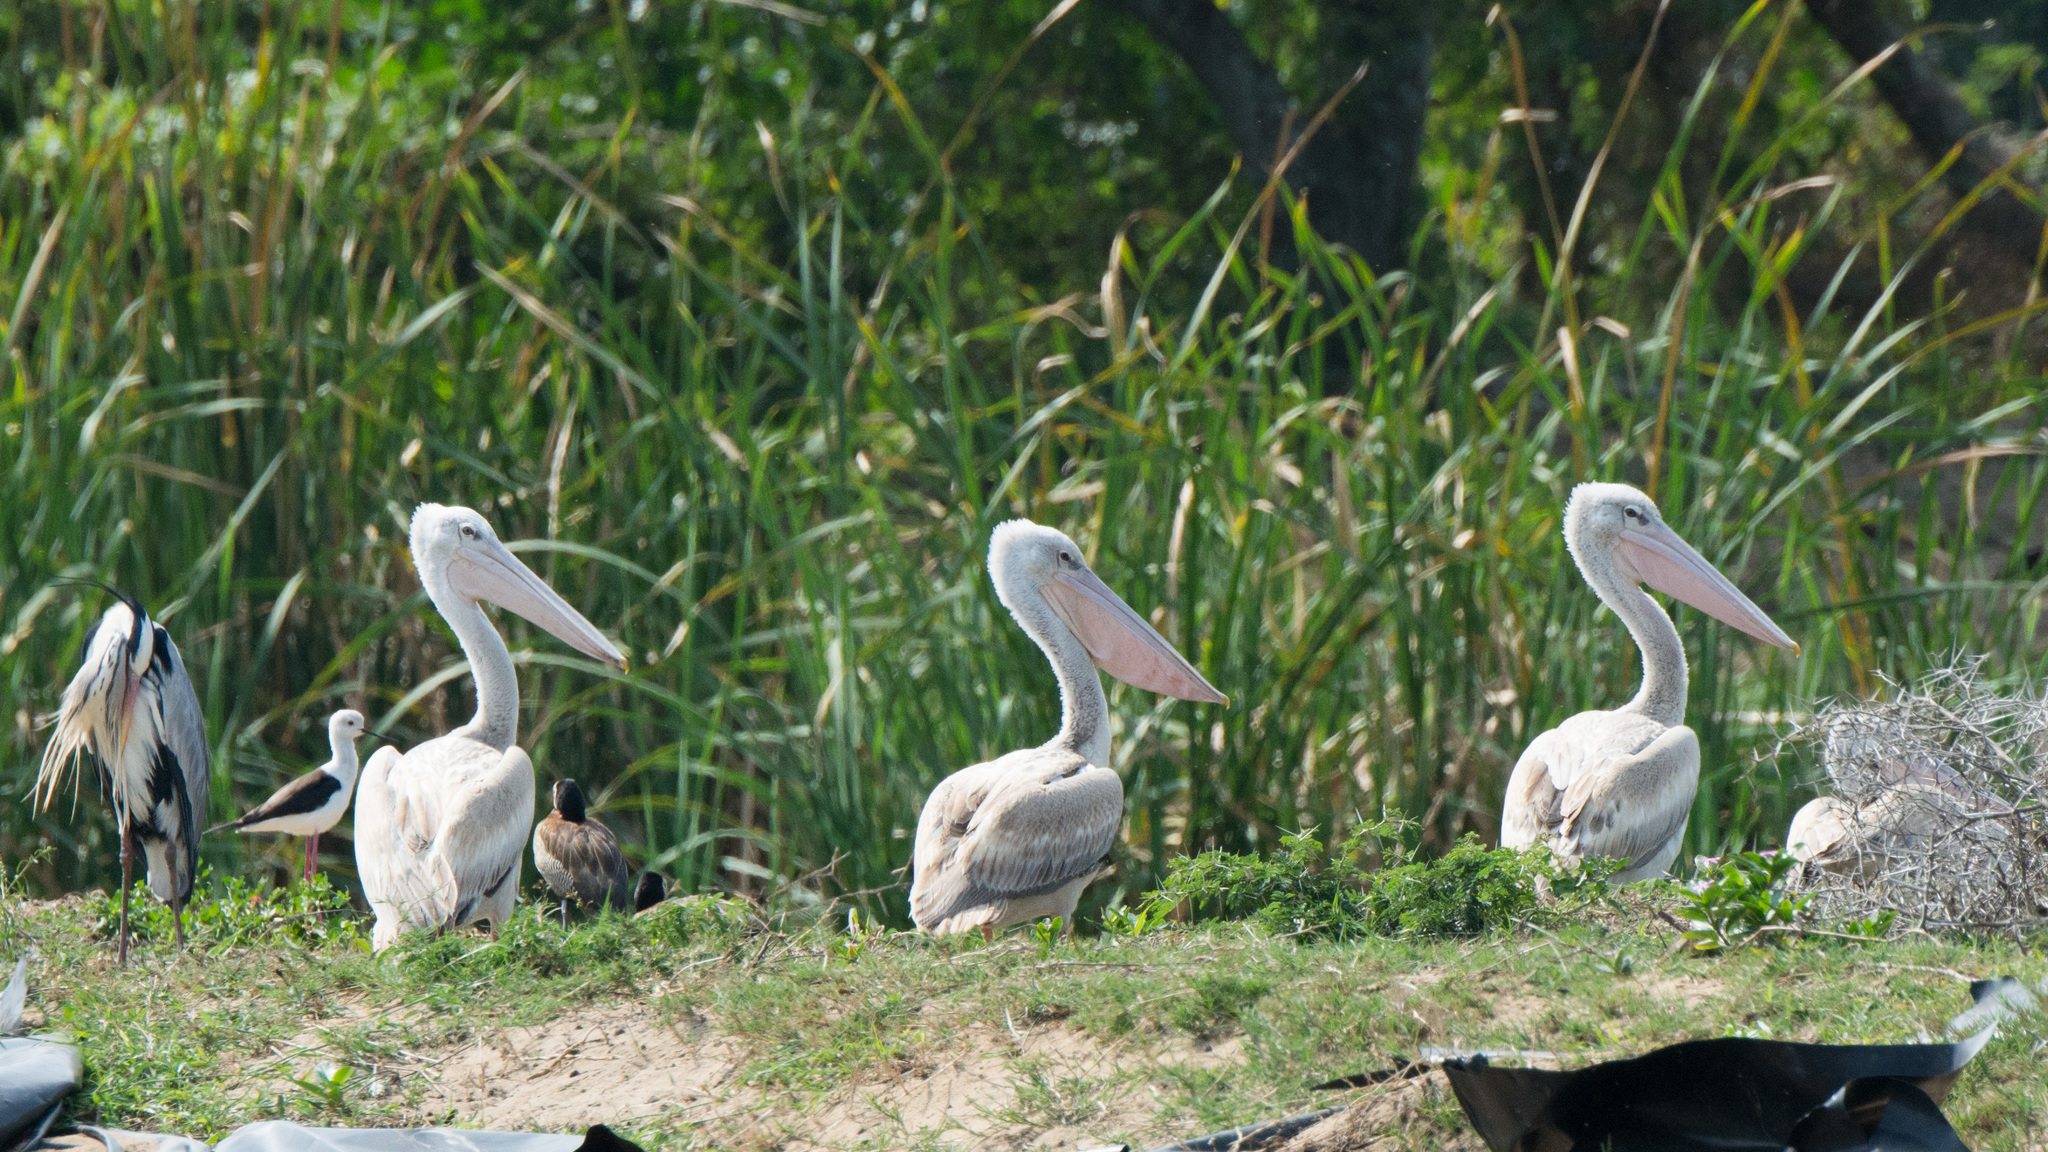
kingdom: Animalia
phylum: Chordata
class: Aves
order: Pelecaniformes
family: Pelecanidae
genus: Pelecanus
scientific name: Pelecanus rufescens
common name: Pink-backed pelican
